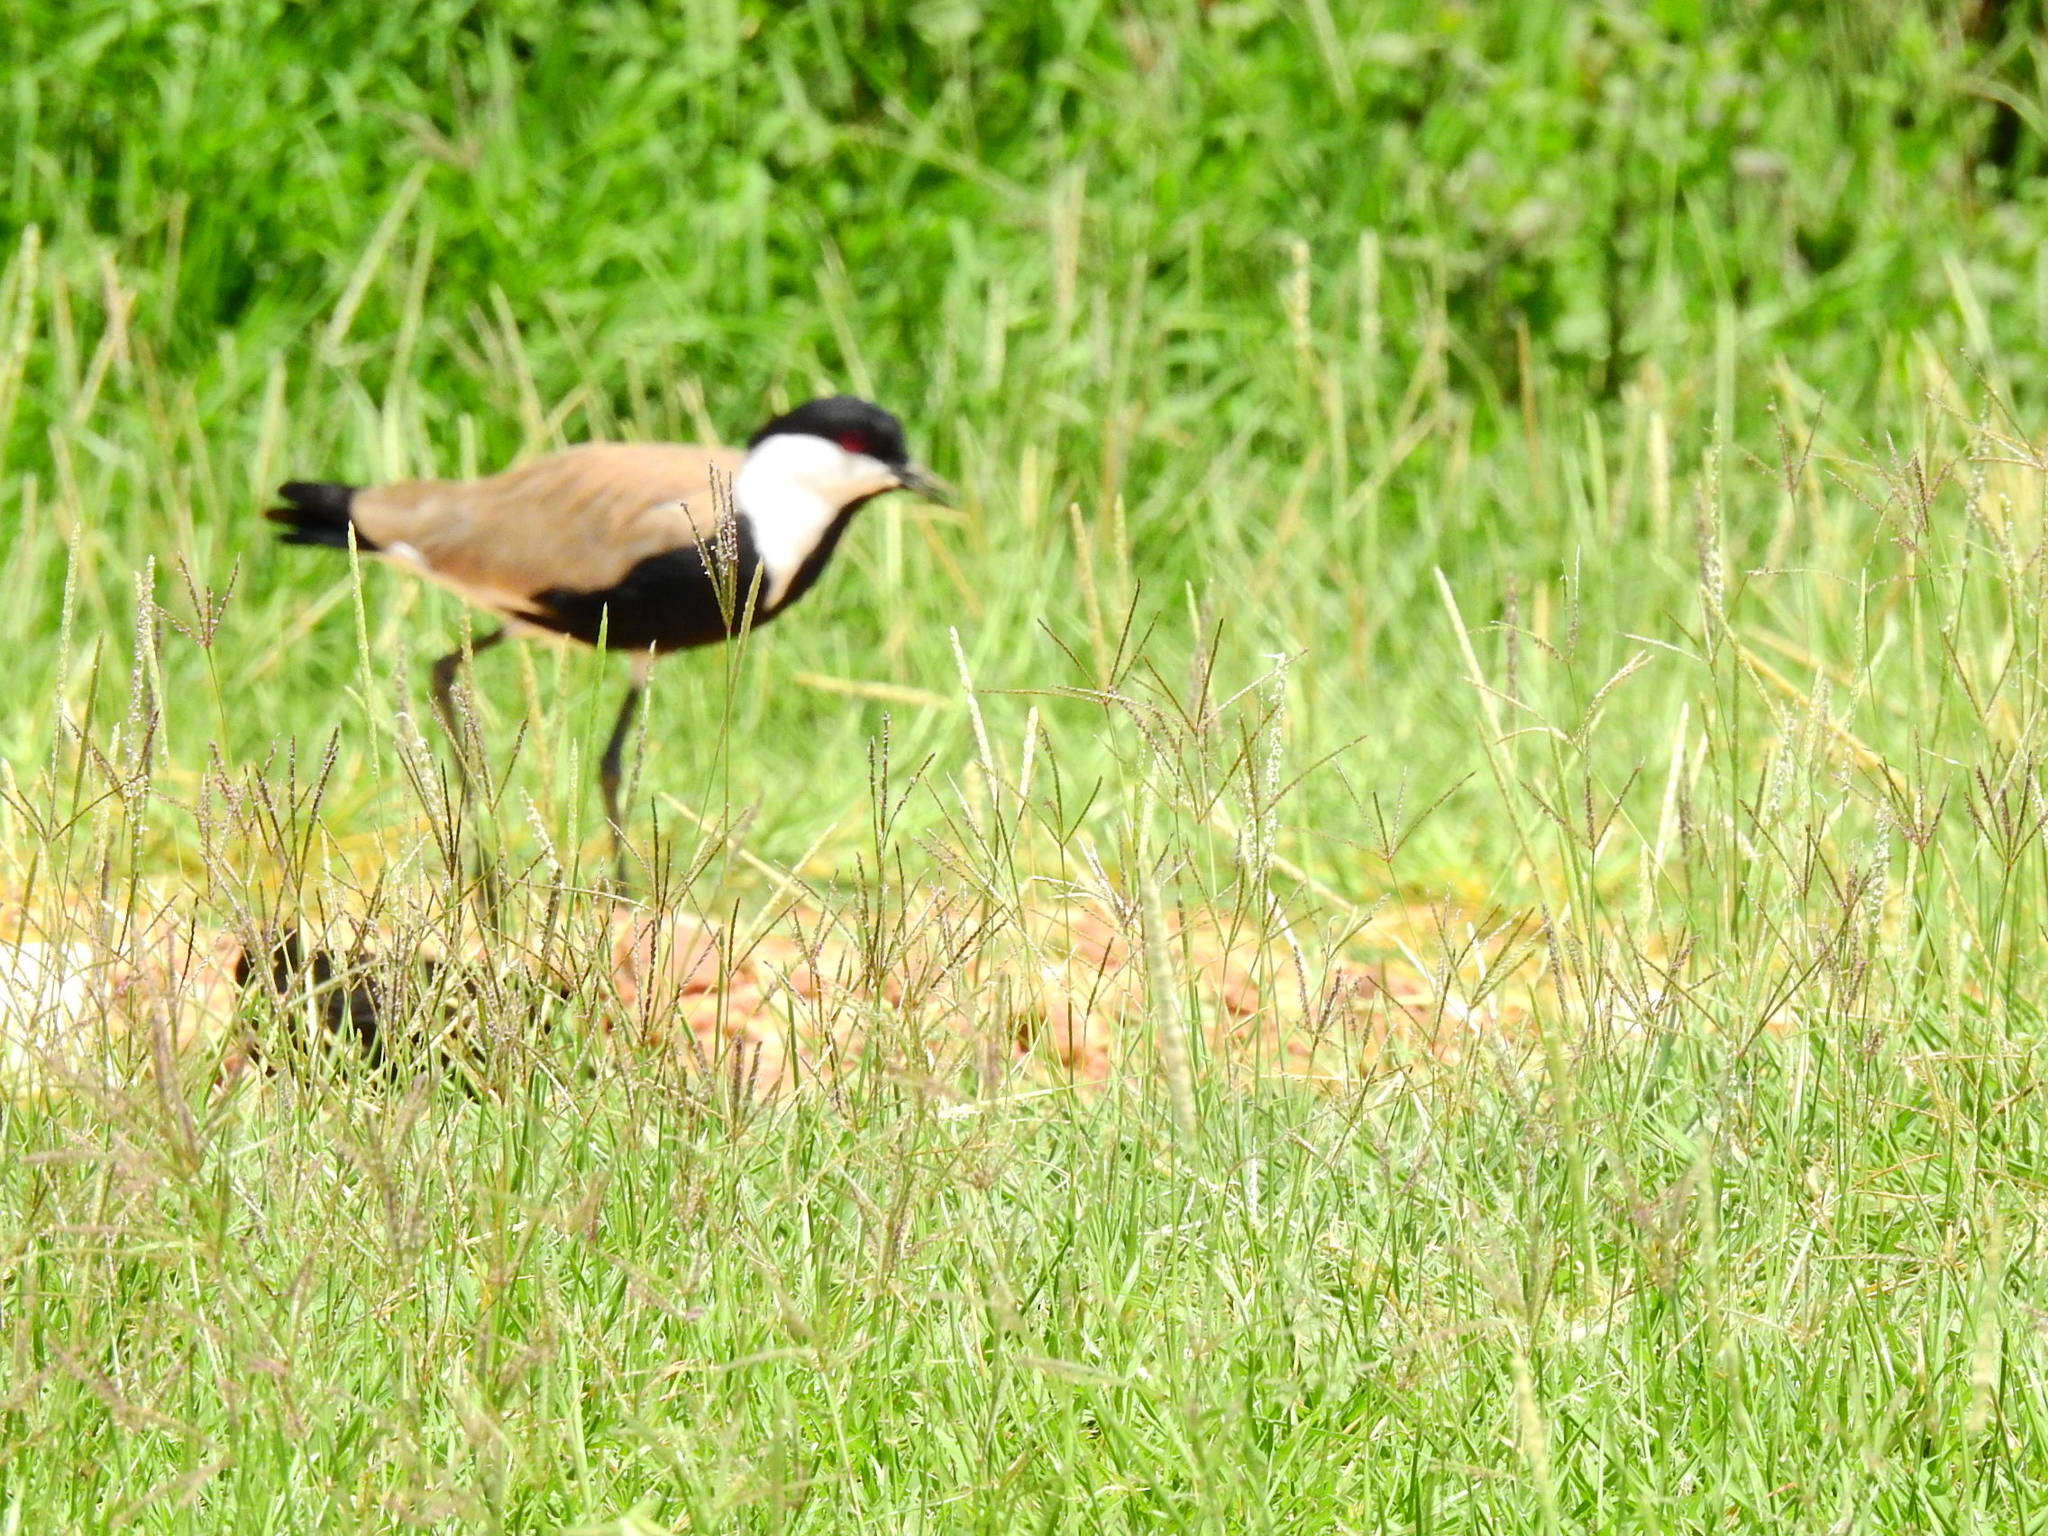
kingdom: Animalia
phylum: Chordata
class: Aves
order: Charadriiformes
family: Charadriidae
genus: Vanellus
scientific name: Vanellus spinosus
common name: Spur-winged lapwing
